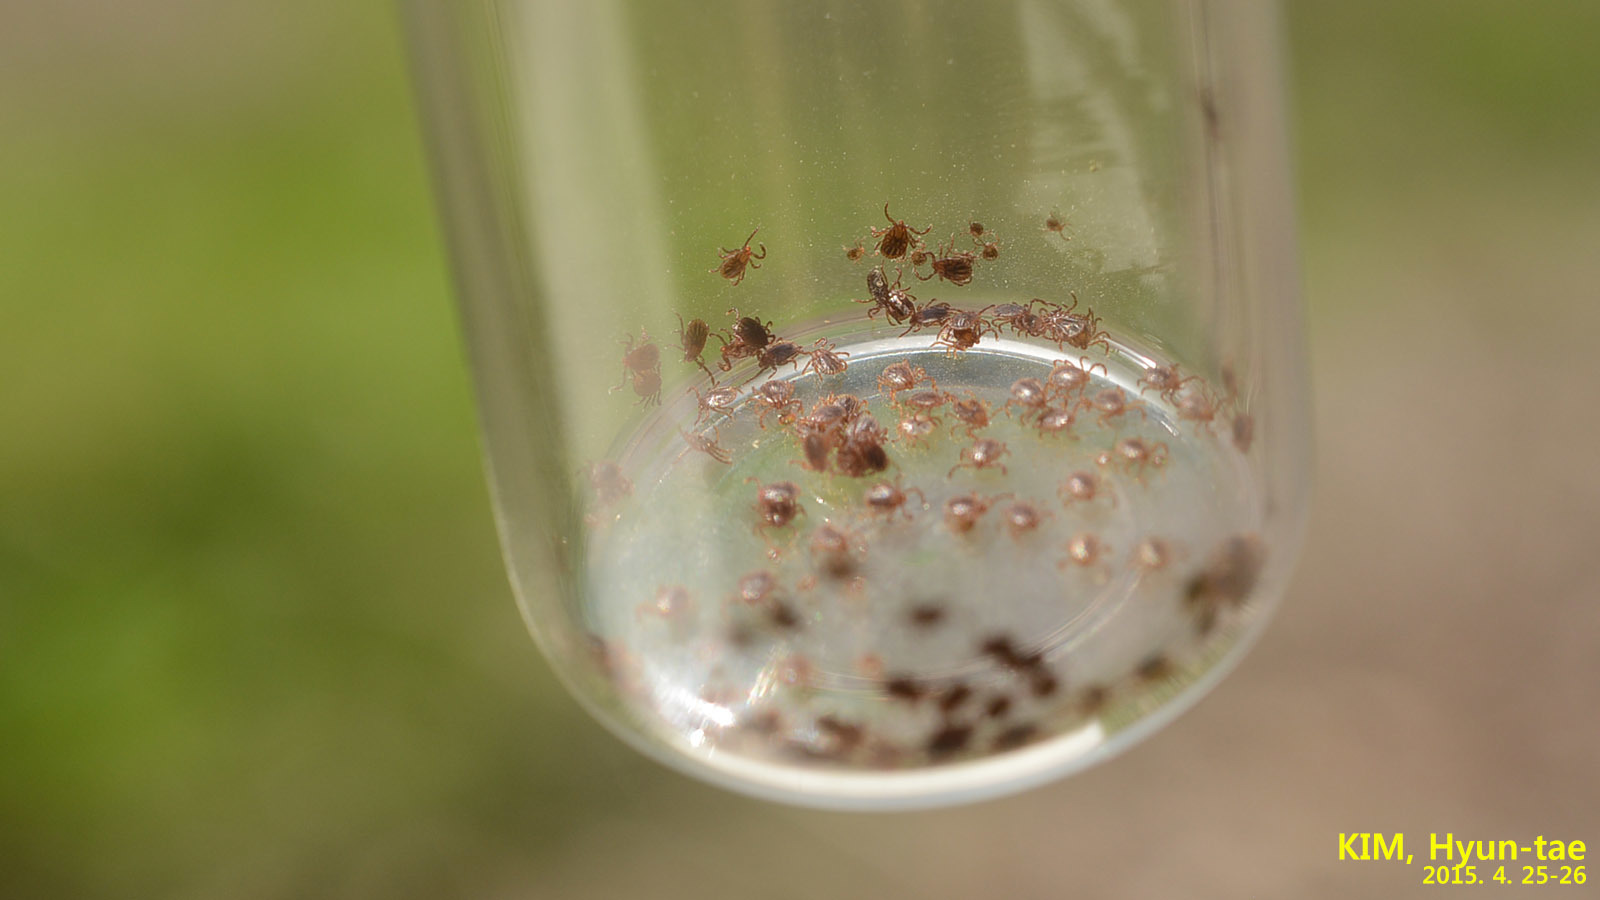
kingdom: Animalia
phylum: Arthropoda
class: Arachnida
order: Ixodida
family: Ixodidae
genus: Haemaphysalis
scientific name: Haemaphysalis longicornis
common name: Bush tick
